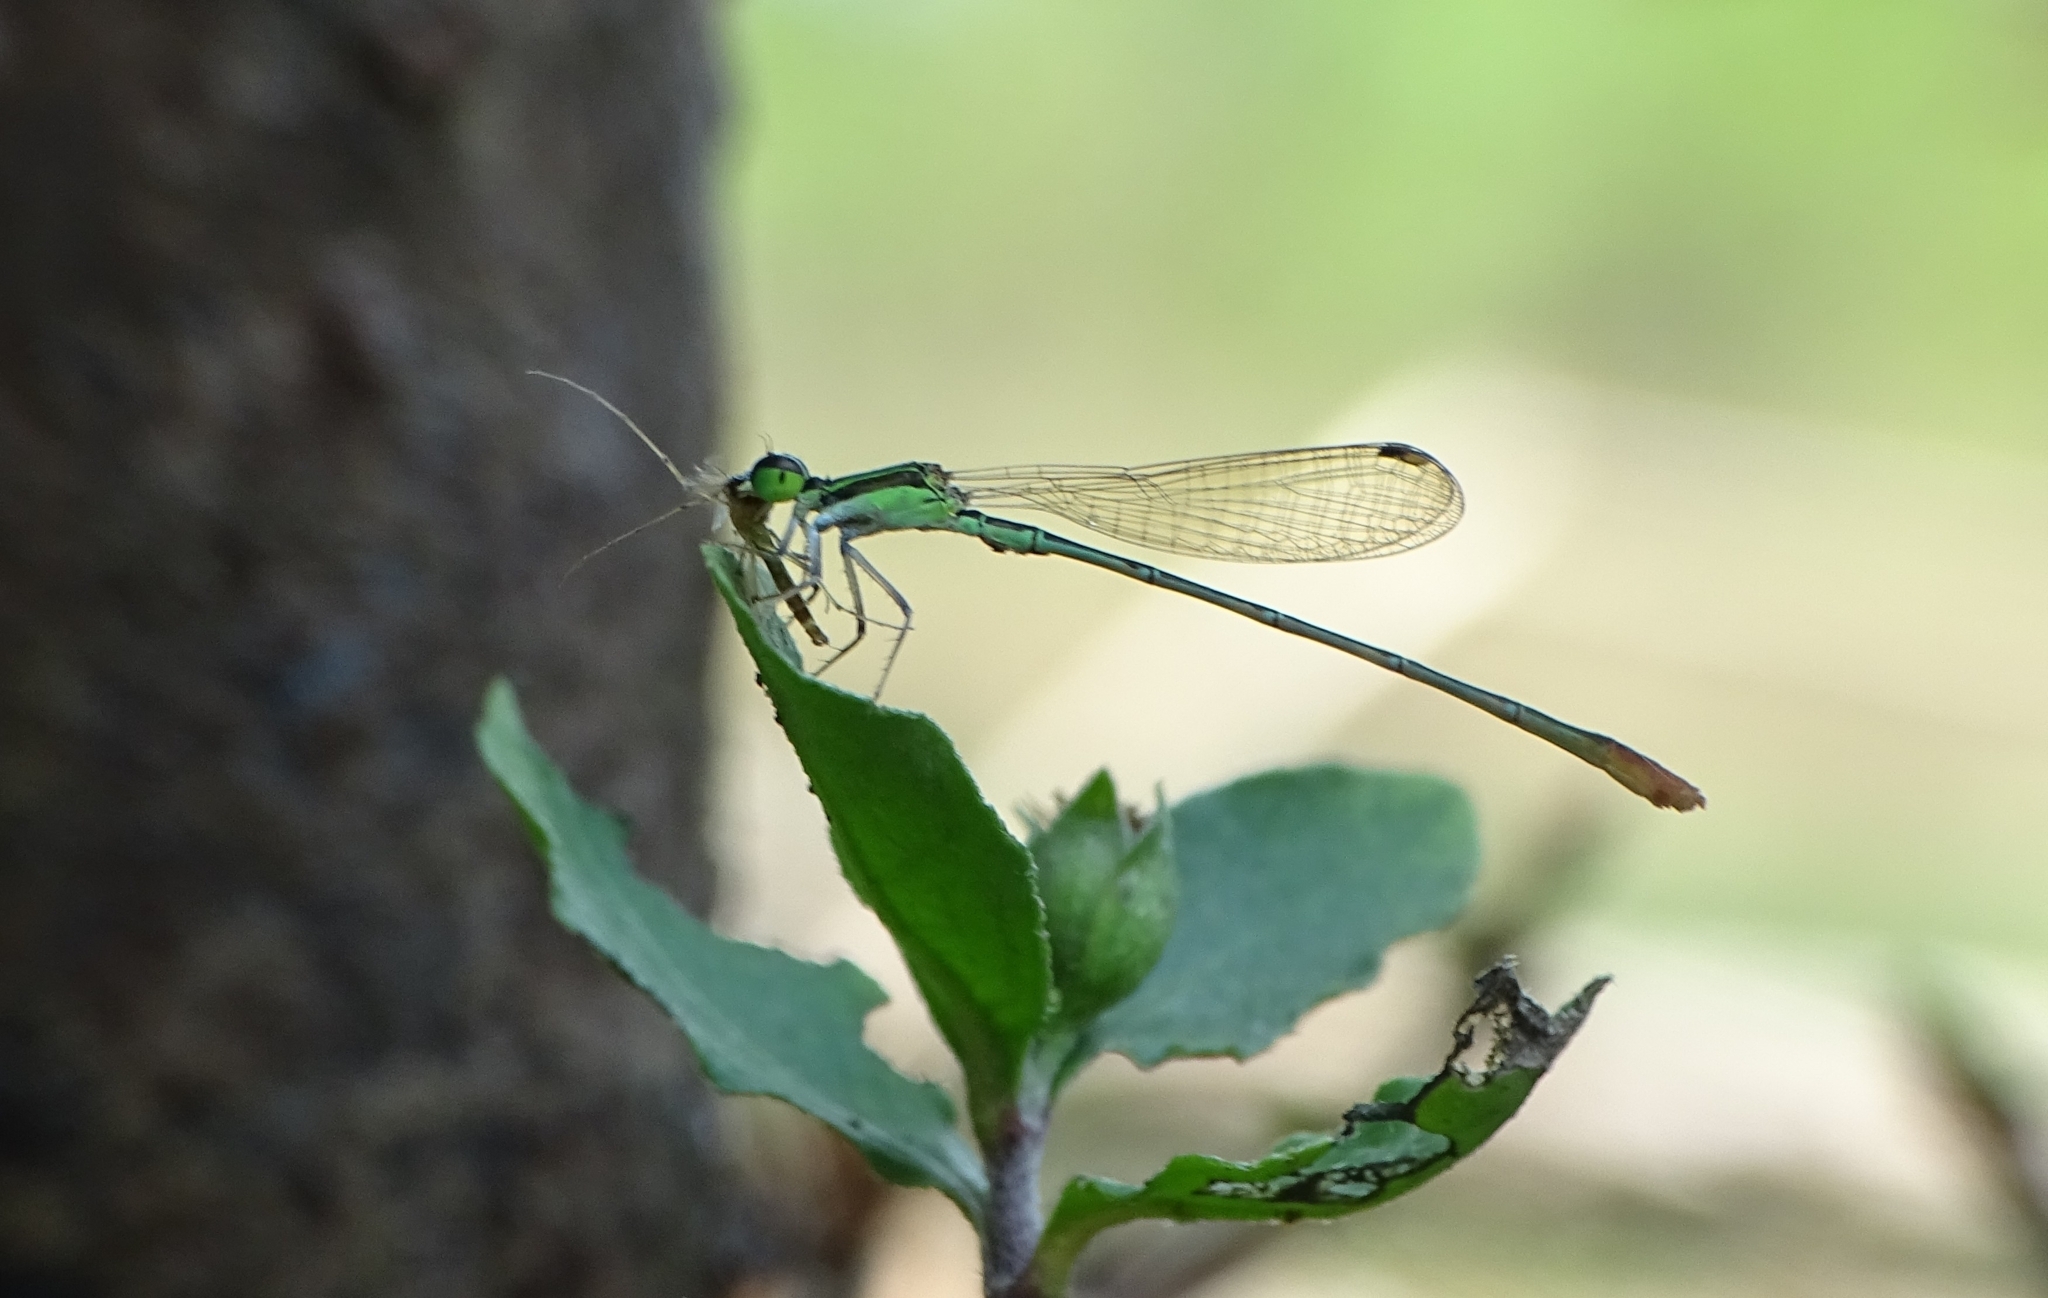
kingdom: Animalia
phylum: Arthropoda
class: Insecta
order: Odonata
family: Coenagrionidae
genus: Agriocnemis
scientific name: Agriocnemis pygmaea
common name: Pygmy wisp
